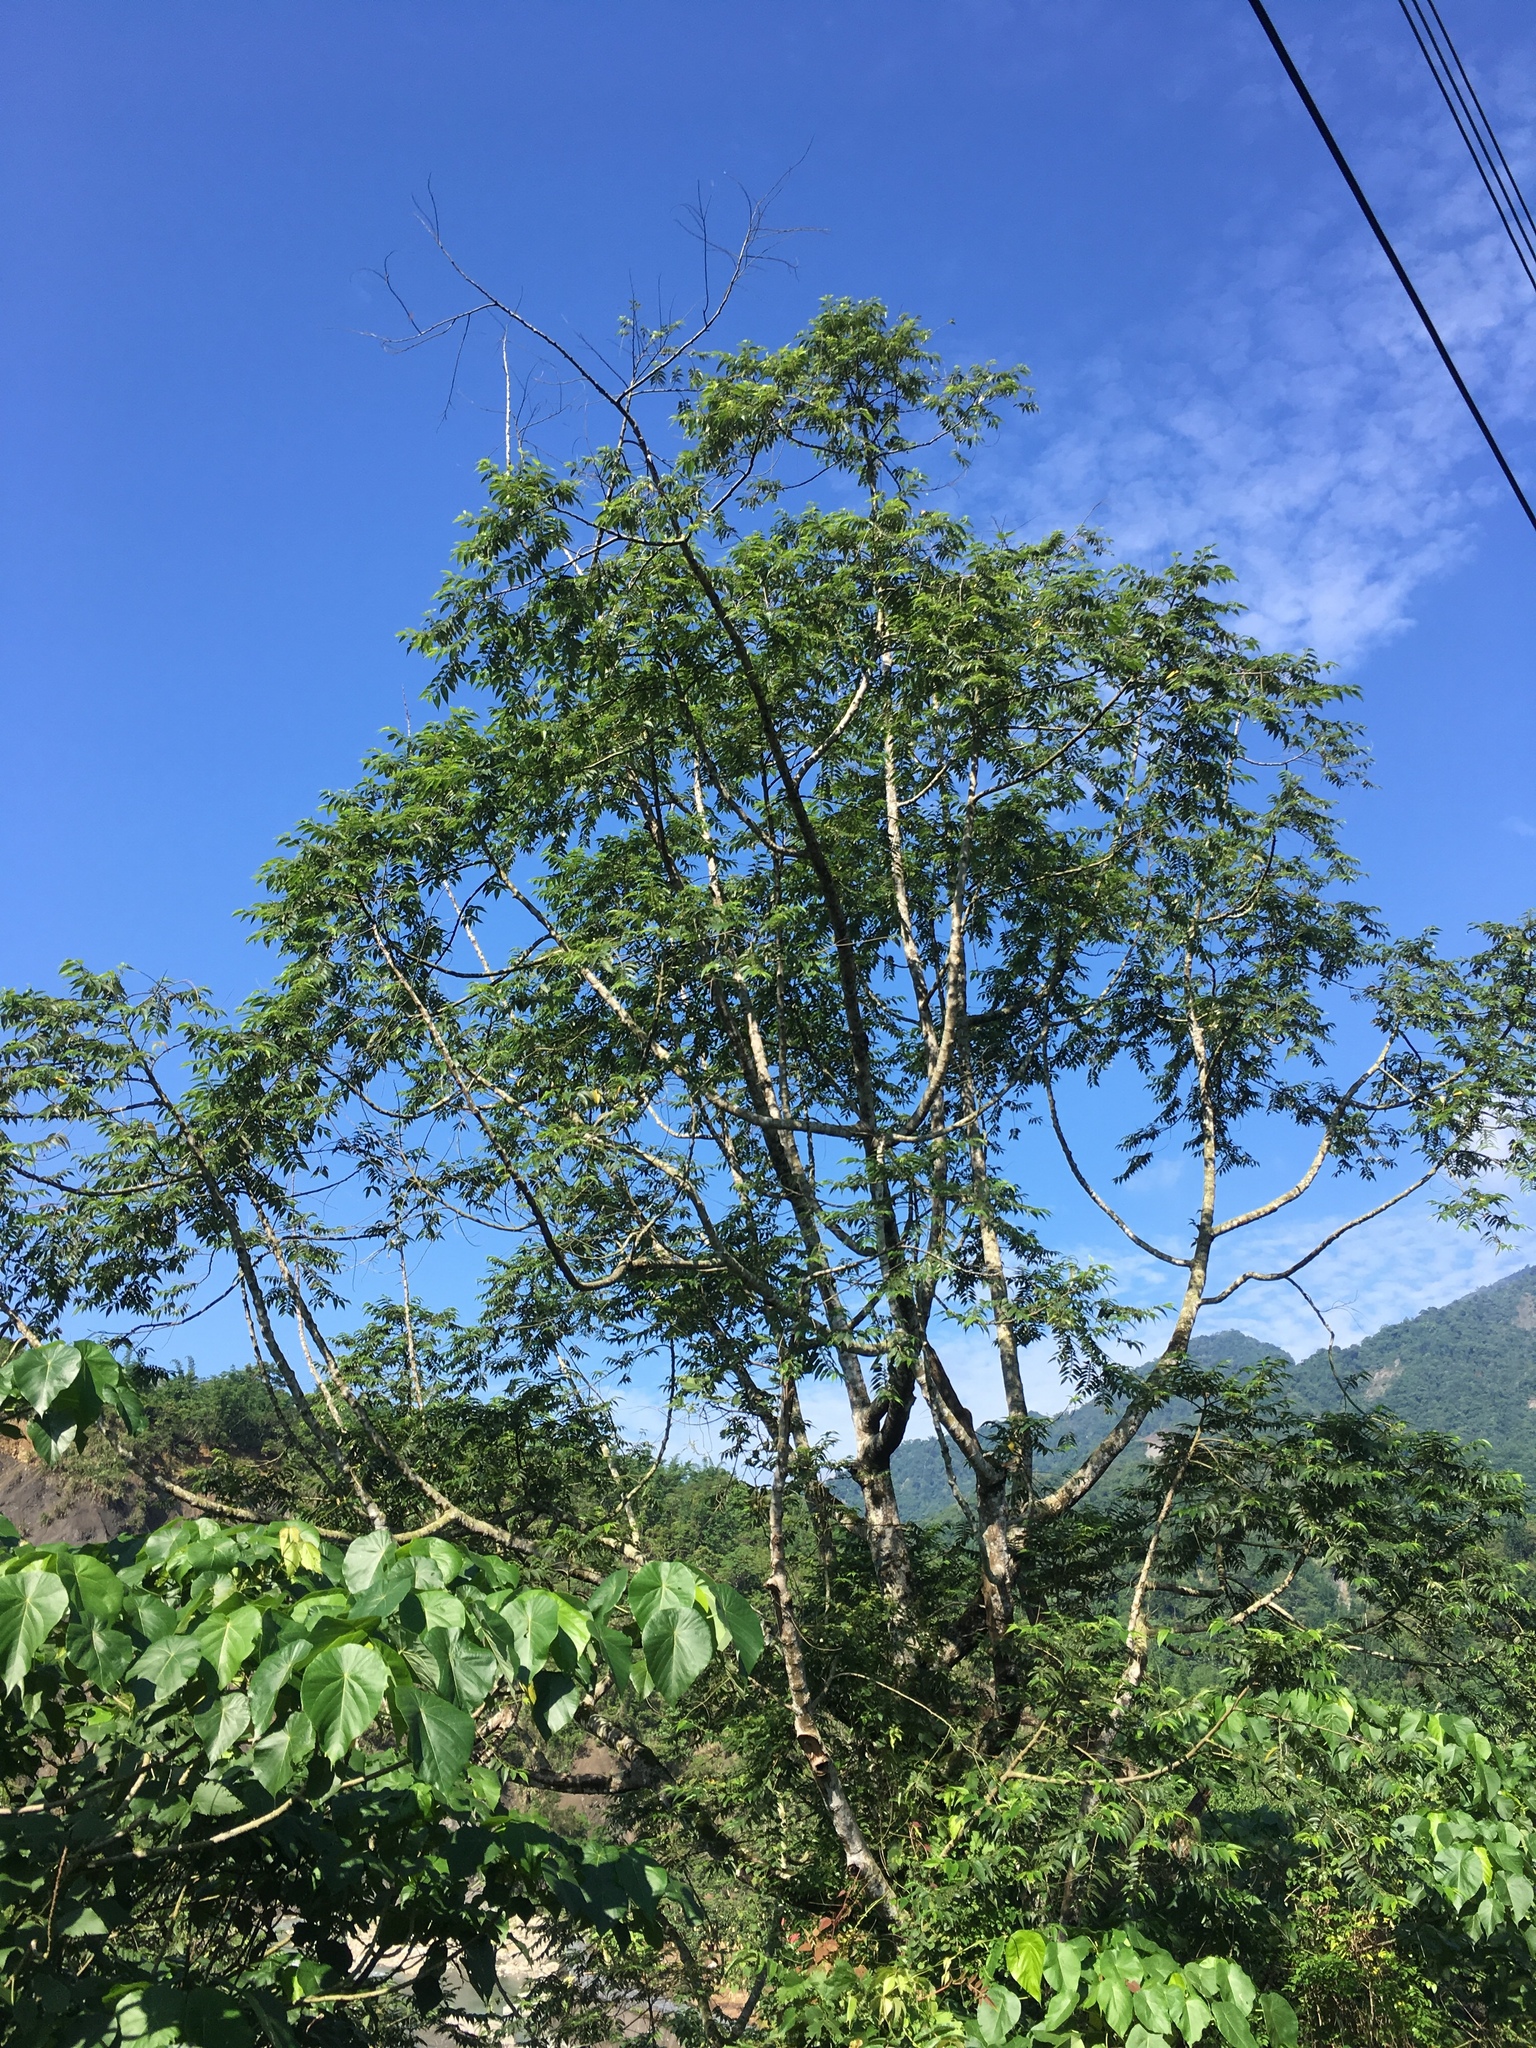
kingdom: Plantae
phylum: Tracheophyta
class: Magnoliopsida
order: Rosales
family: Cannabaceae
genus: Trema
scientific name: Trema orientale
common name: Indian charcoal tree
